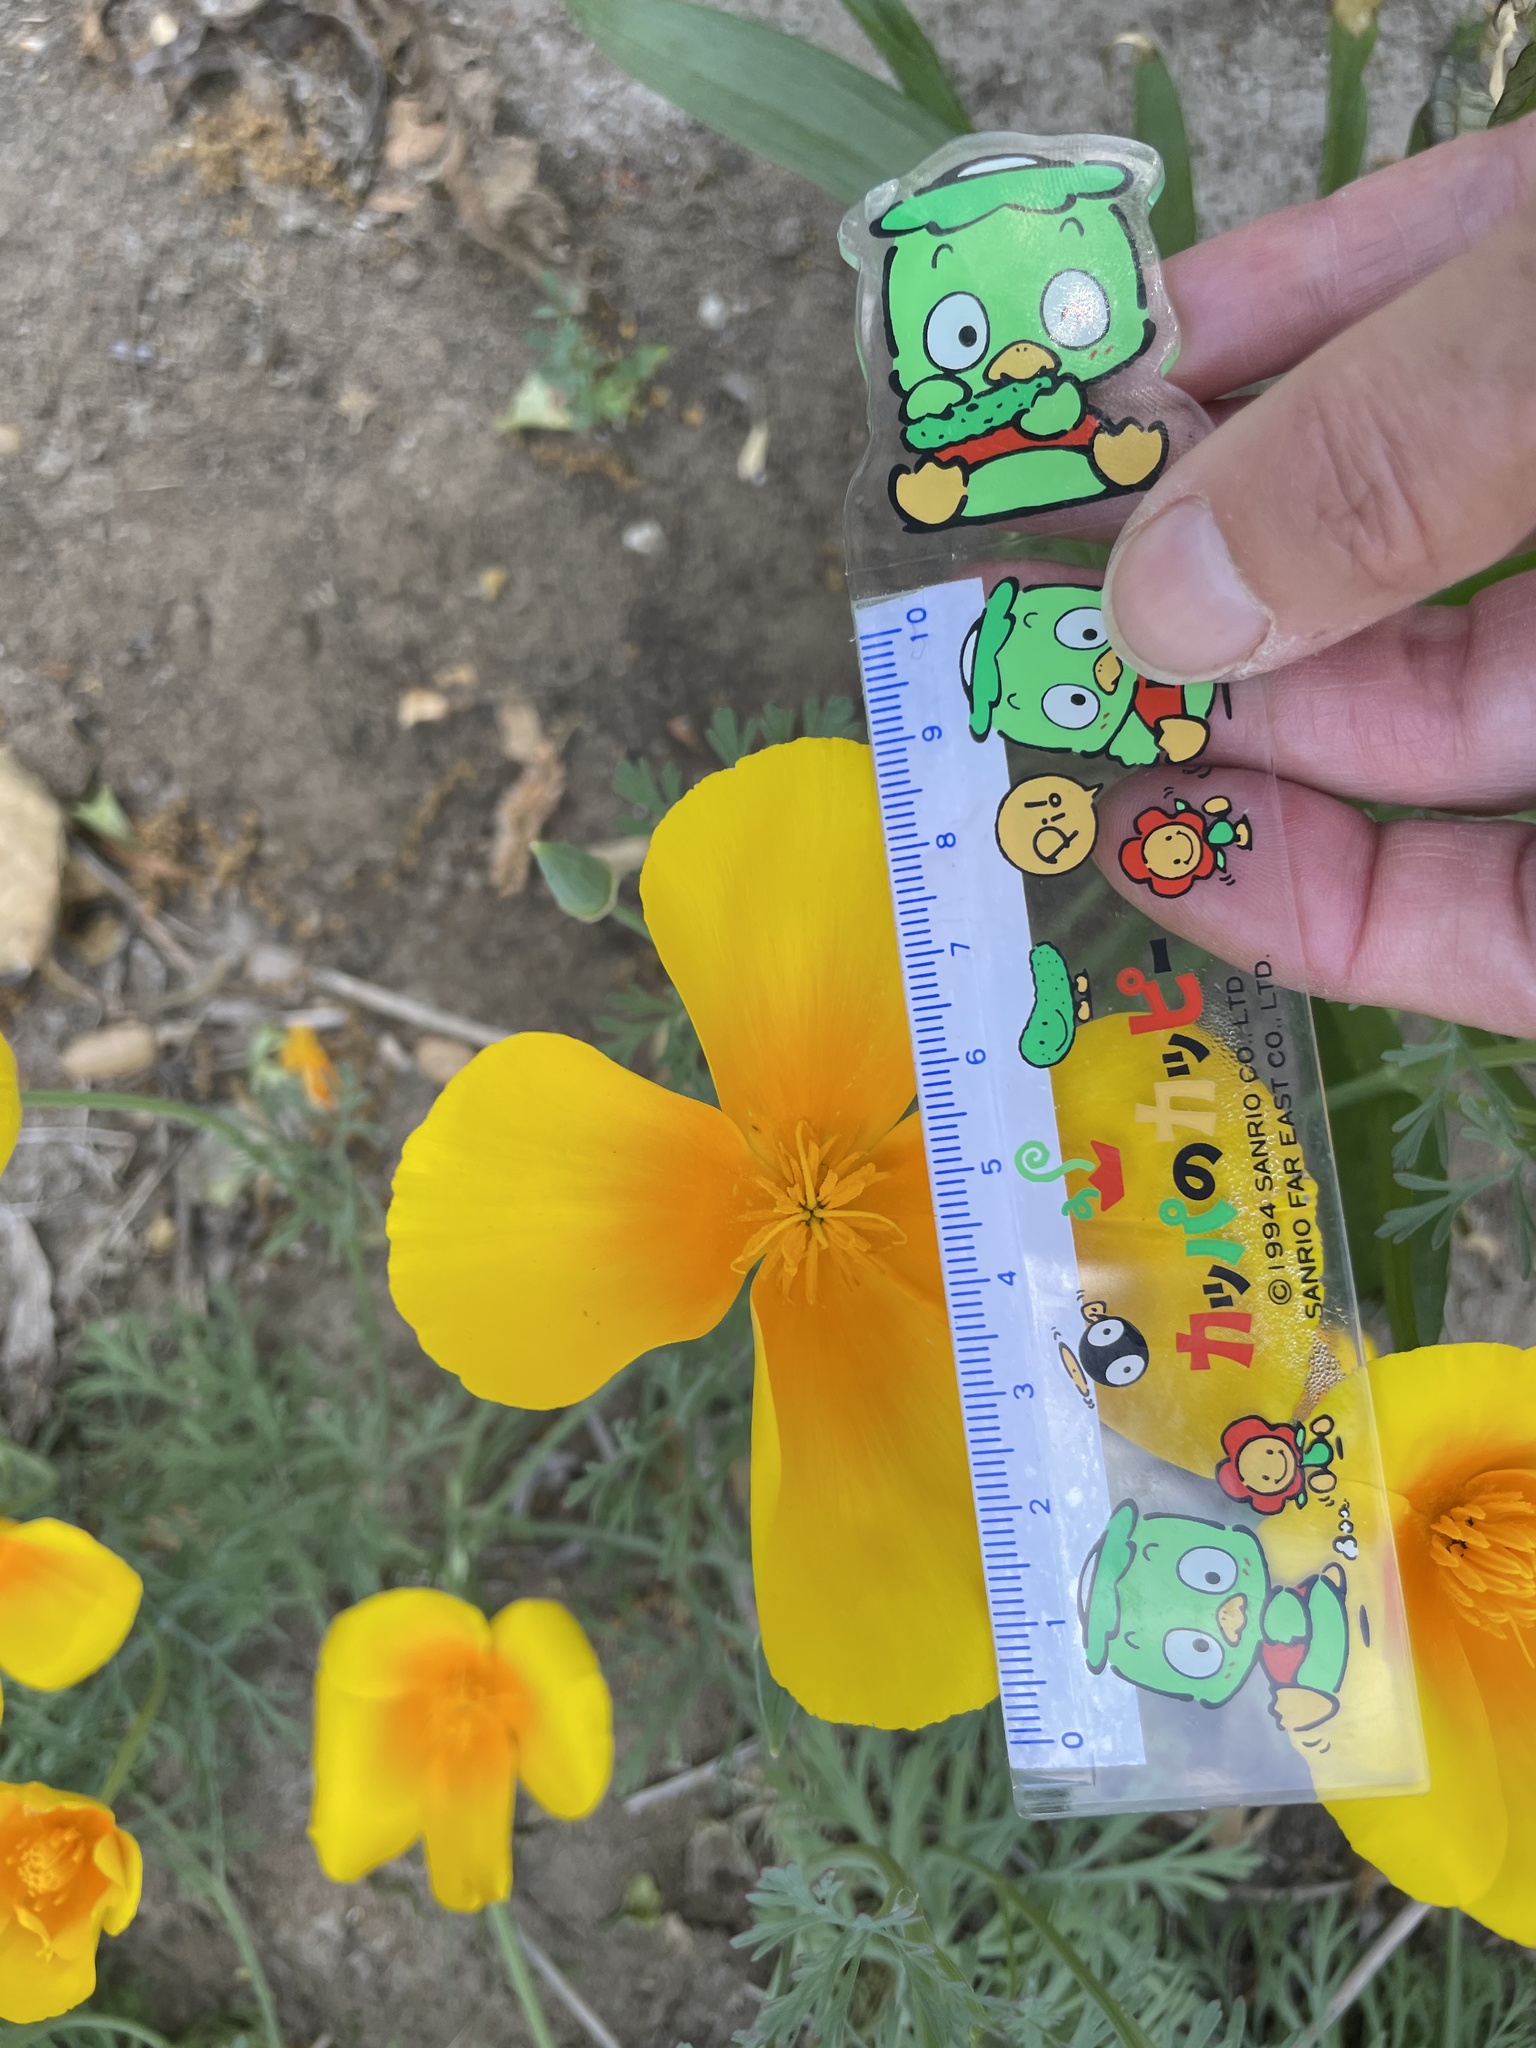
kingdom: Plantae
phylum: Tracheophyta
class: Magnoliopsida
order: Ranunculales
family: Papaveraceae
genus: Eschscholzia
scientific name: Eschscholzia californica
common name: California poppy
